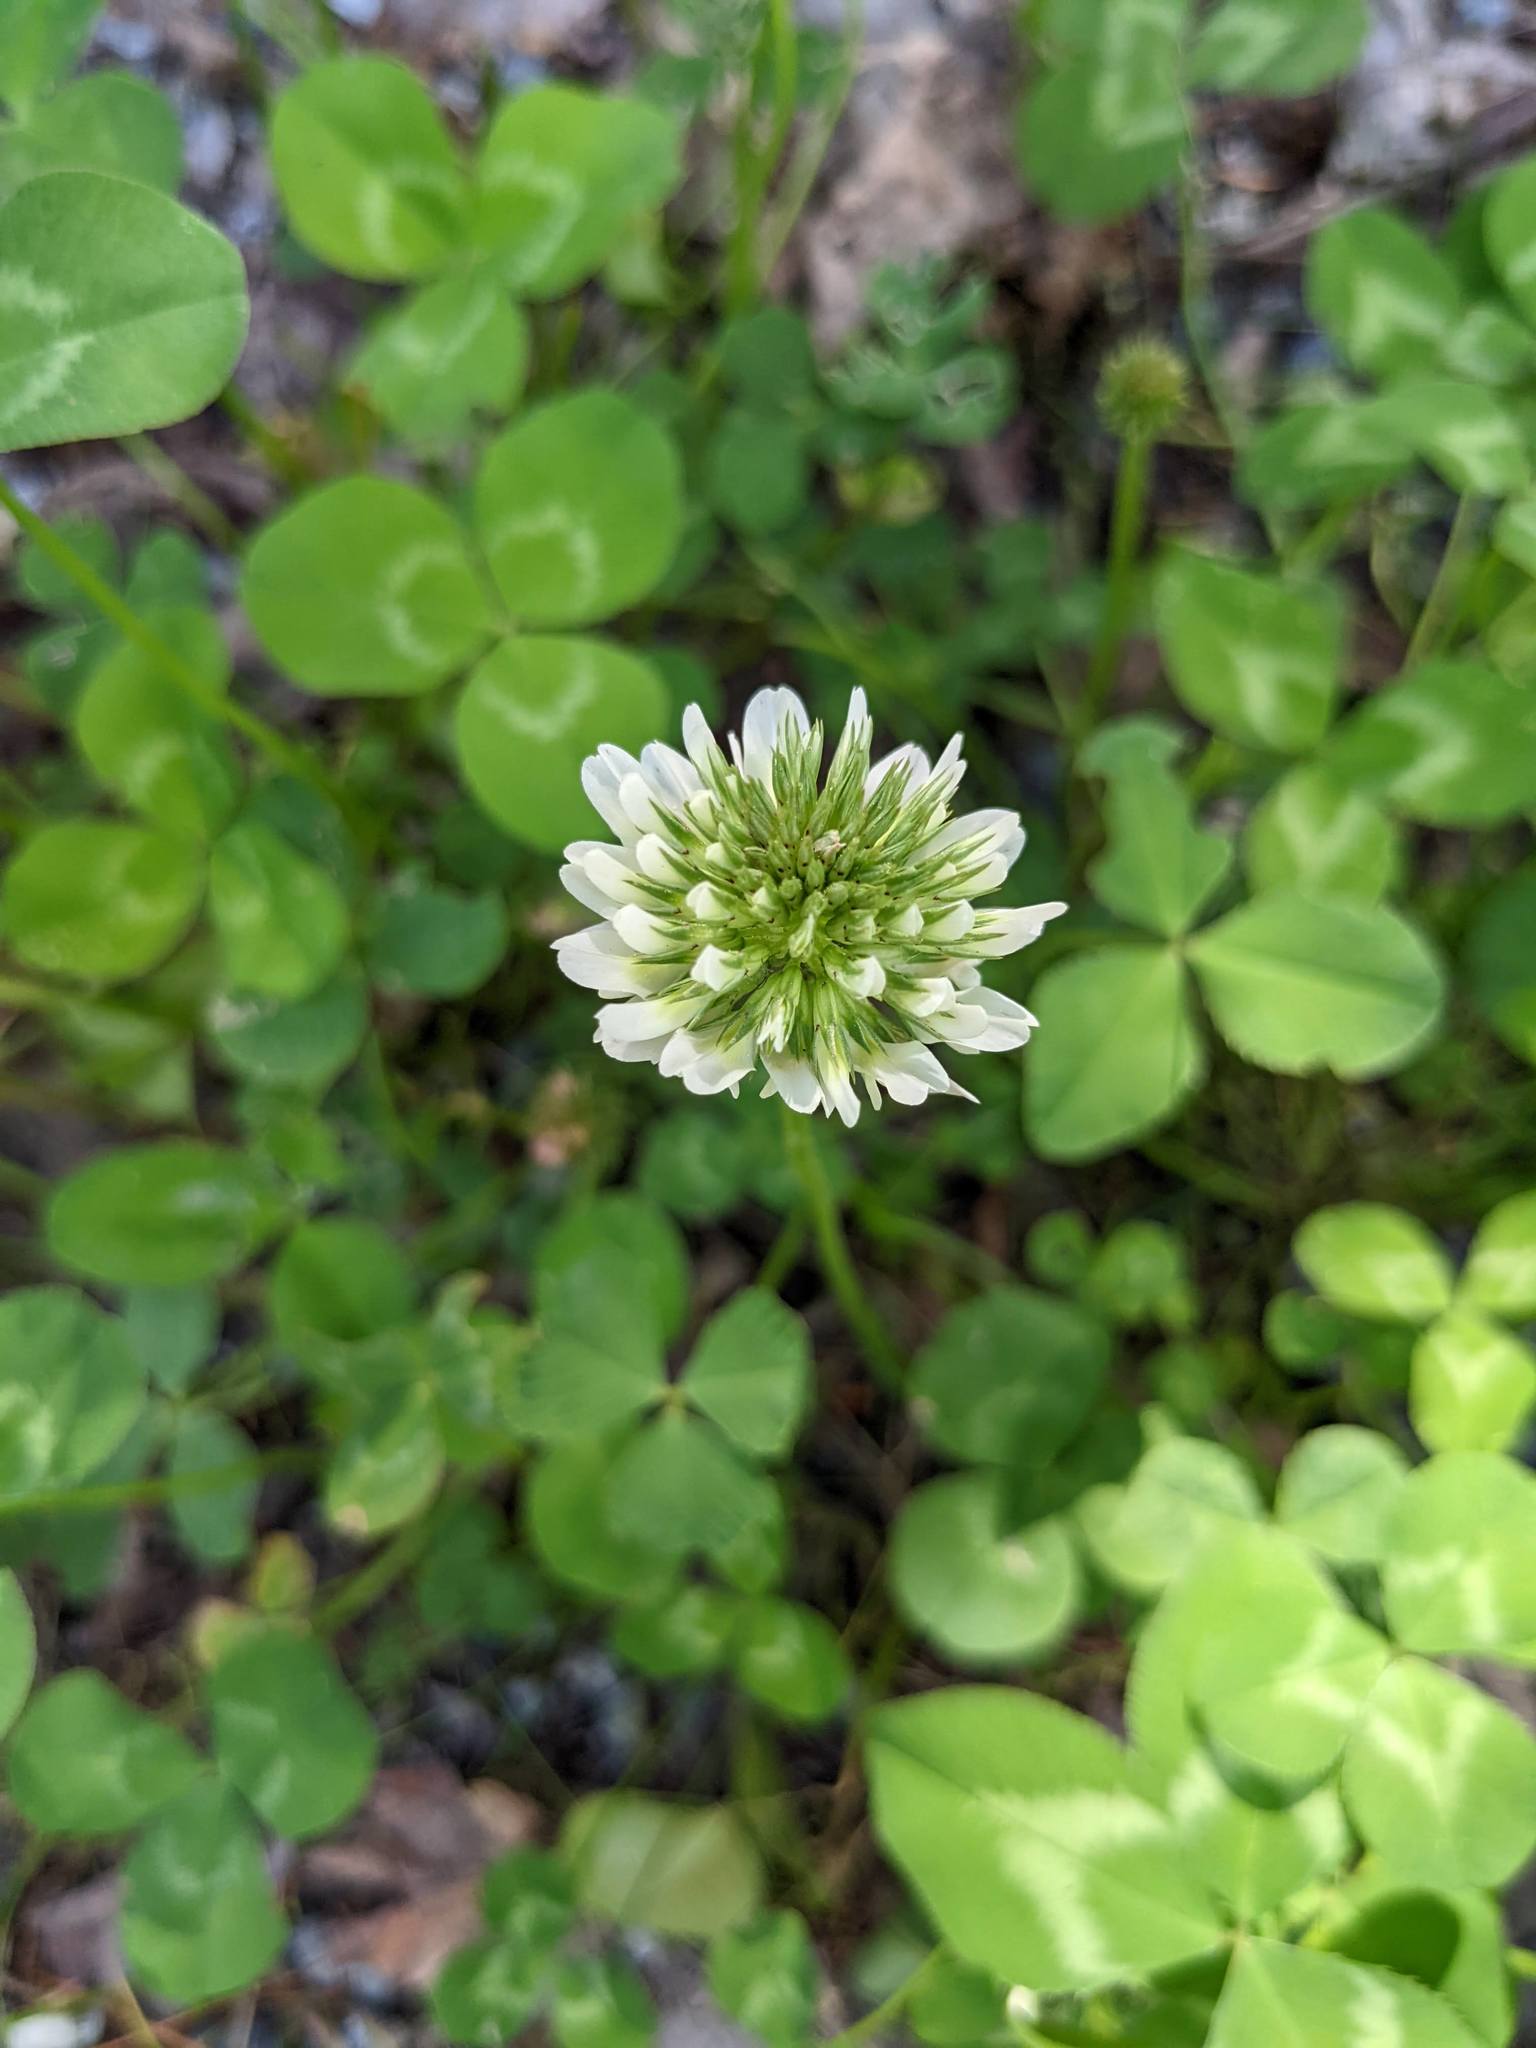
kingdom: Plantae
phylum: Tracheophyta
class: Magnoliopsida
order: Fabales
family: Fabaceae
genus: Trifolium
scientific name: Trifolium repens
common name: White clover
